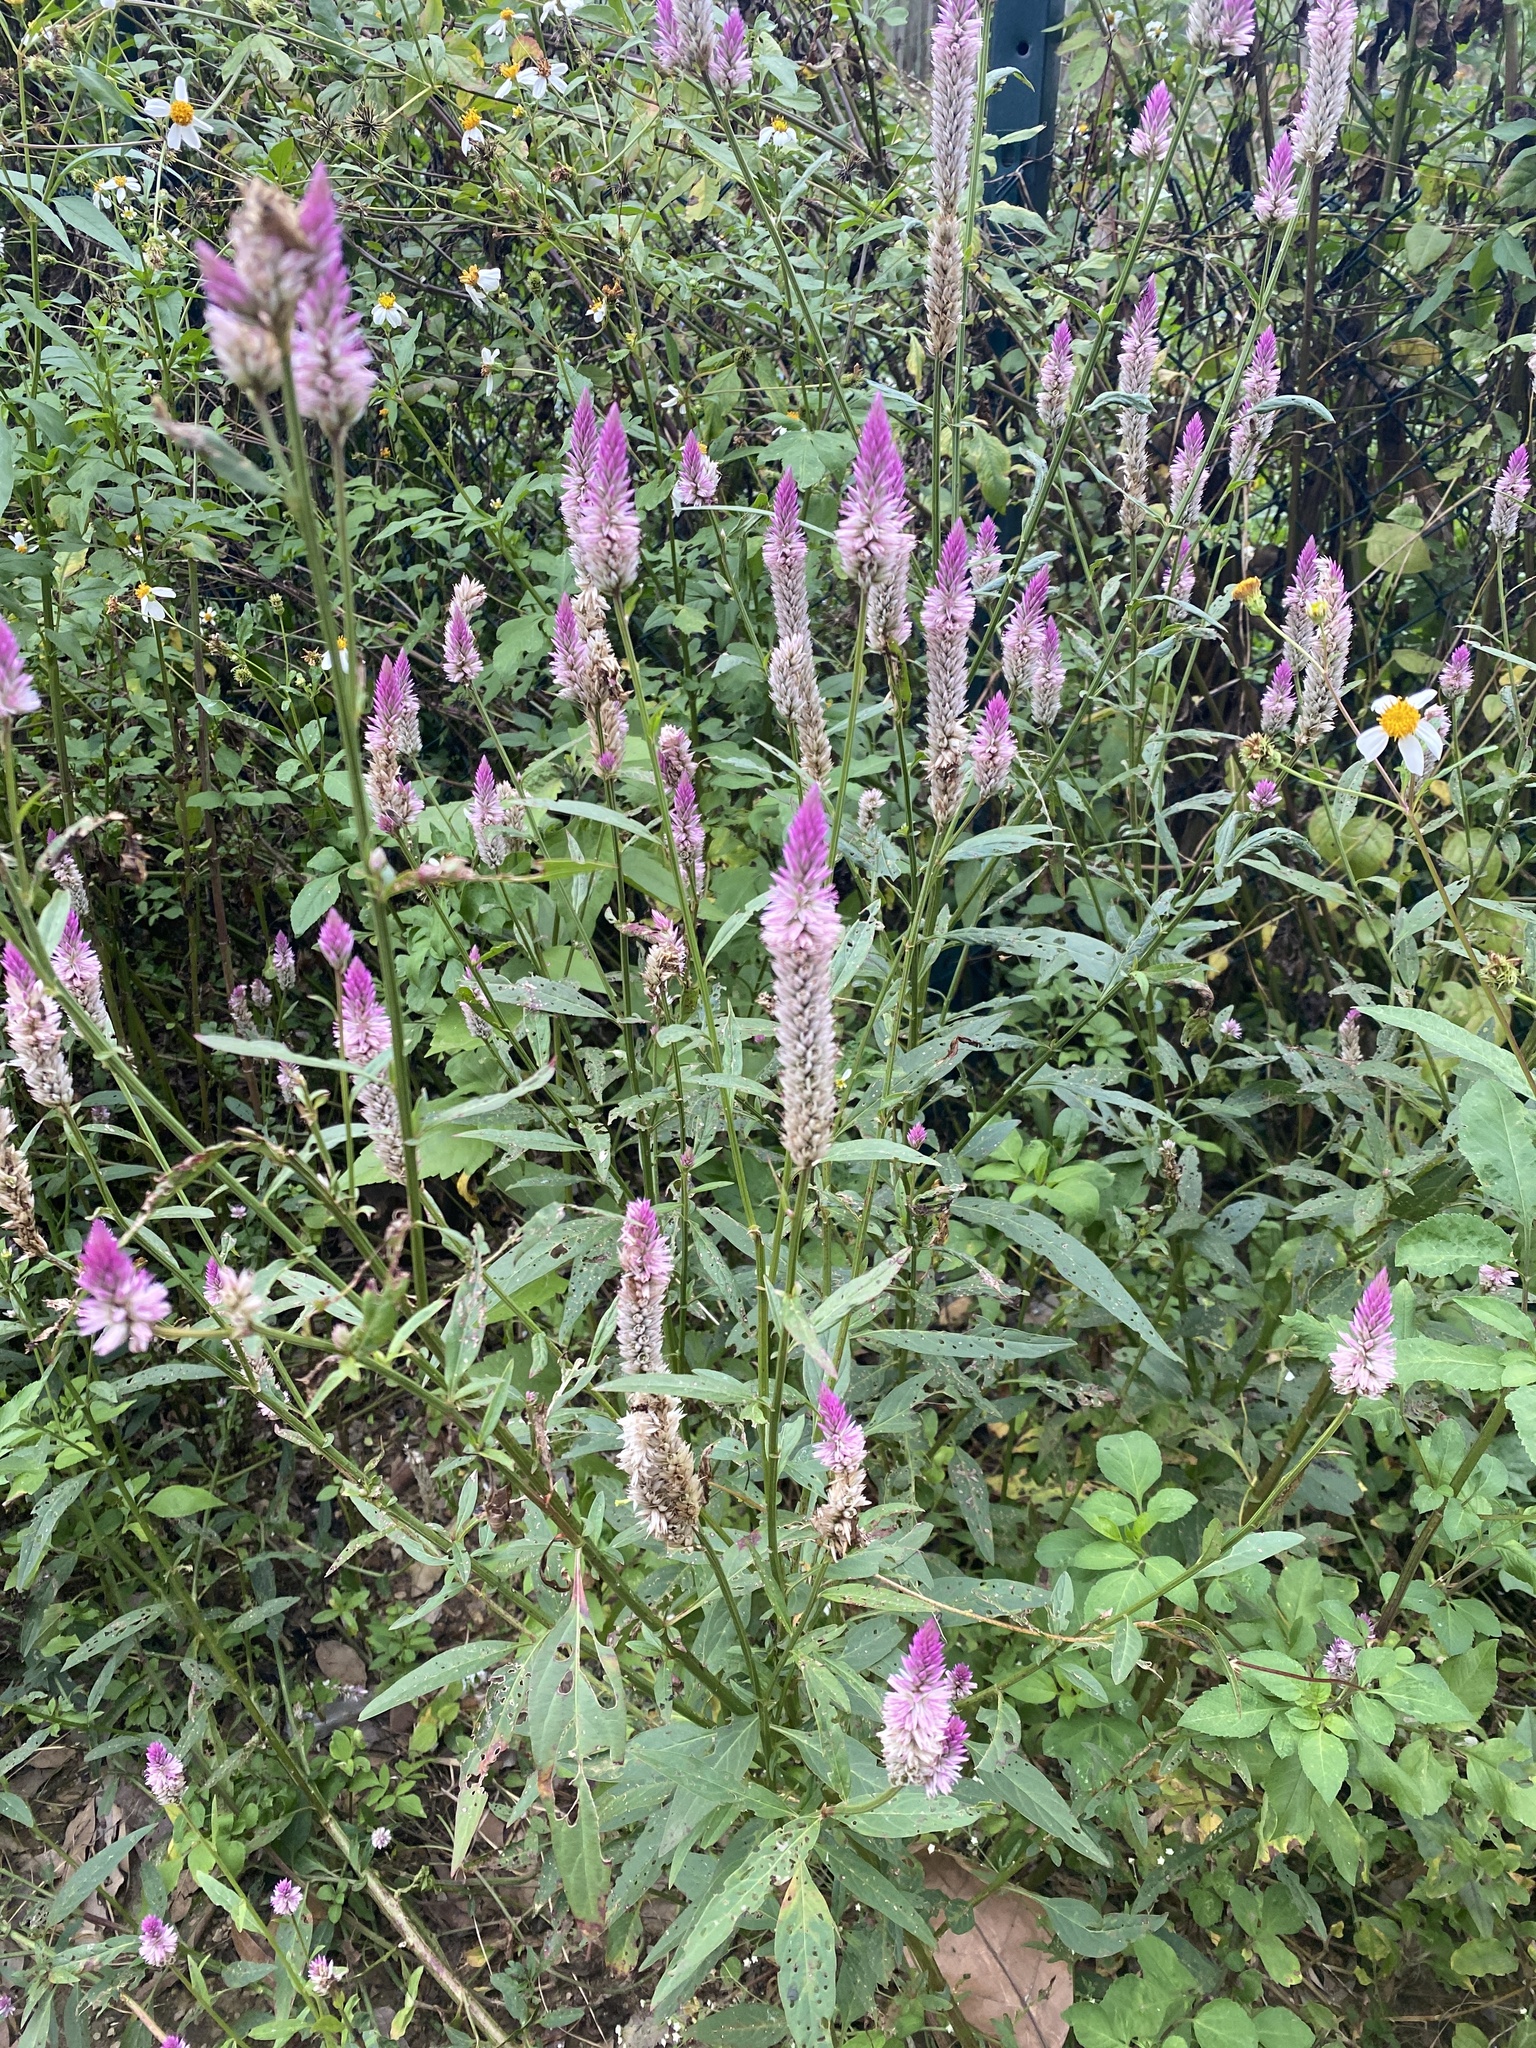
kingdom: Plantae
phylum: Tracheophyta
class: Magnoliopsida
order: Caryophyllales
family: Amaranthaceae
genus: Celosia
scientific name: Celosia argentea
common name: Feather cockscomb
